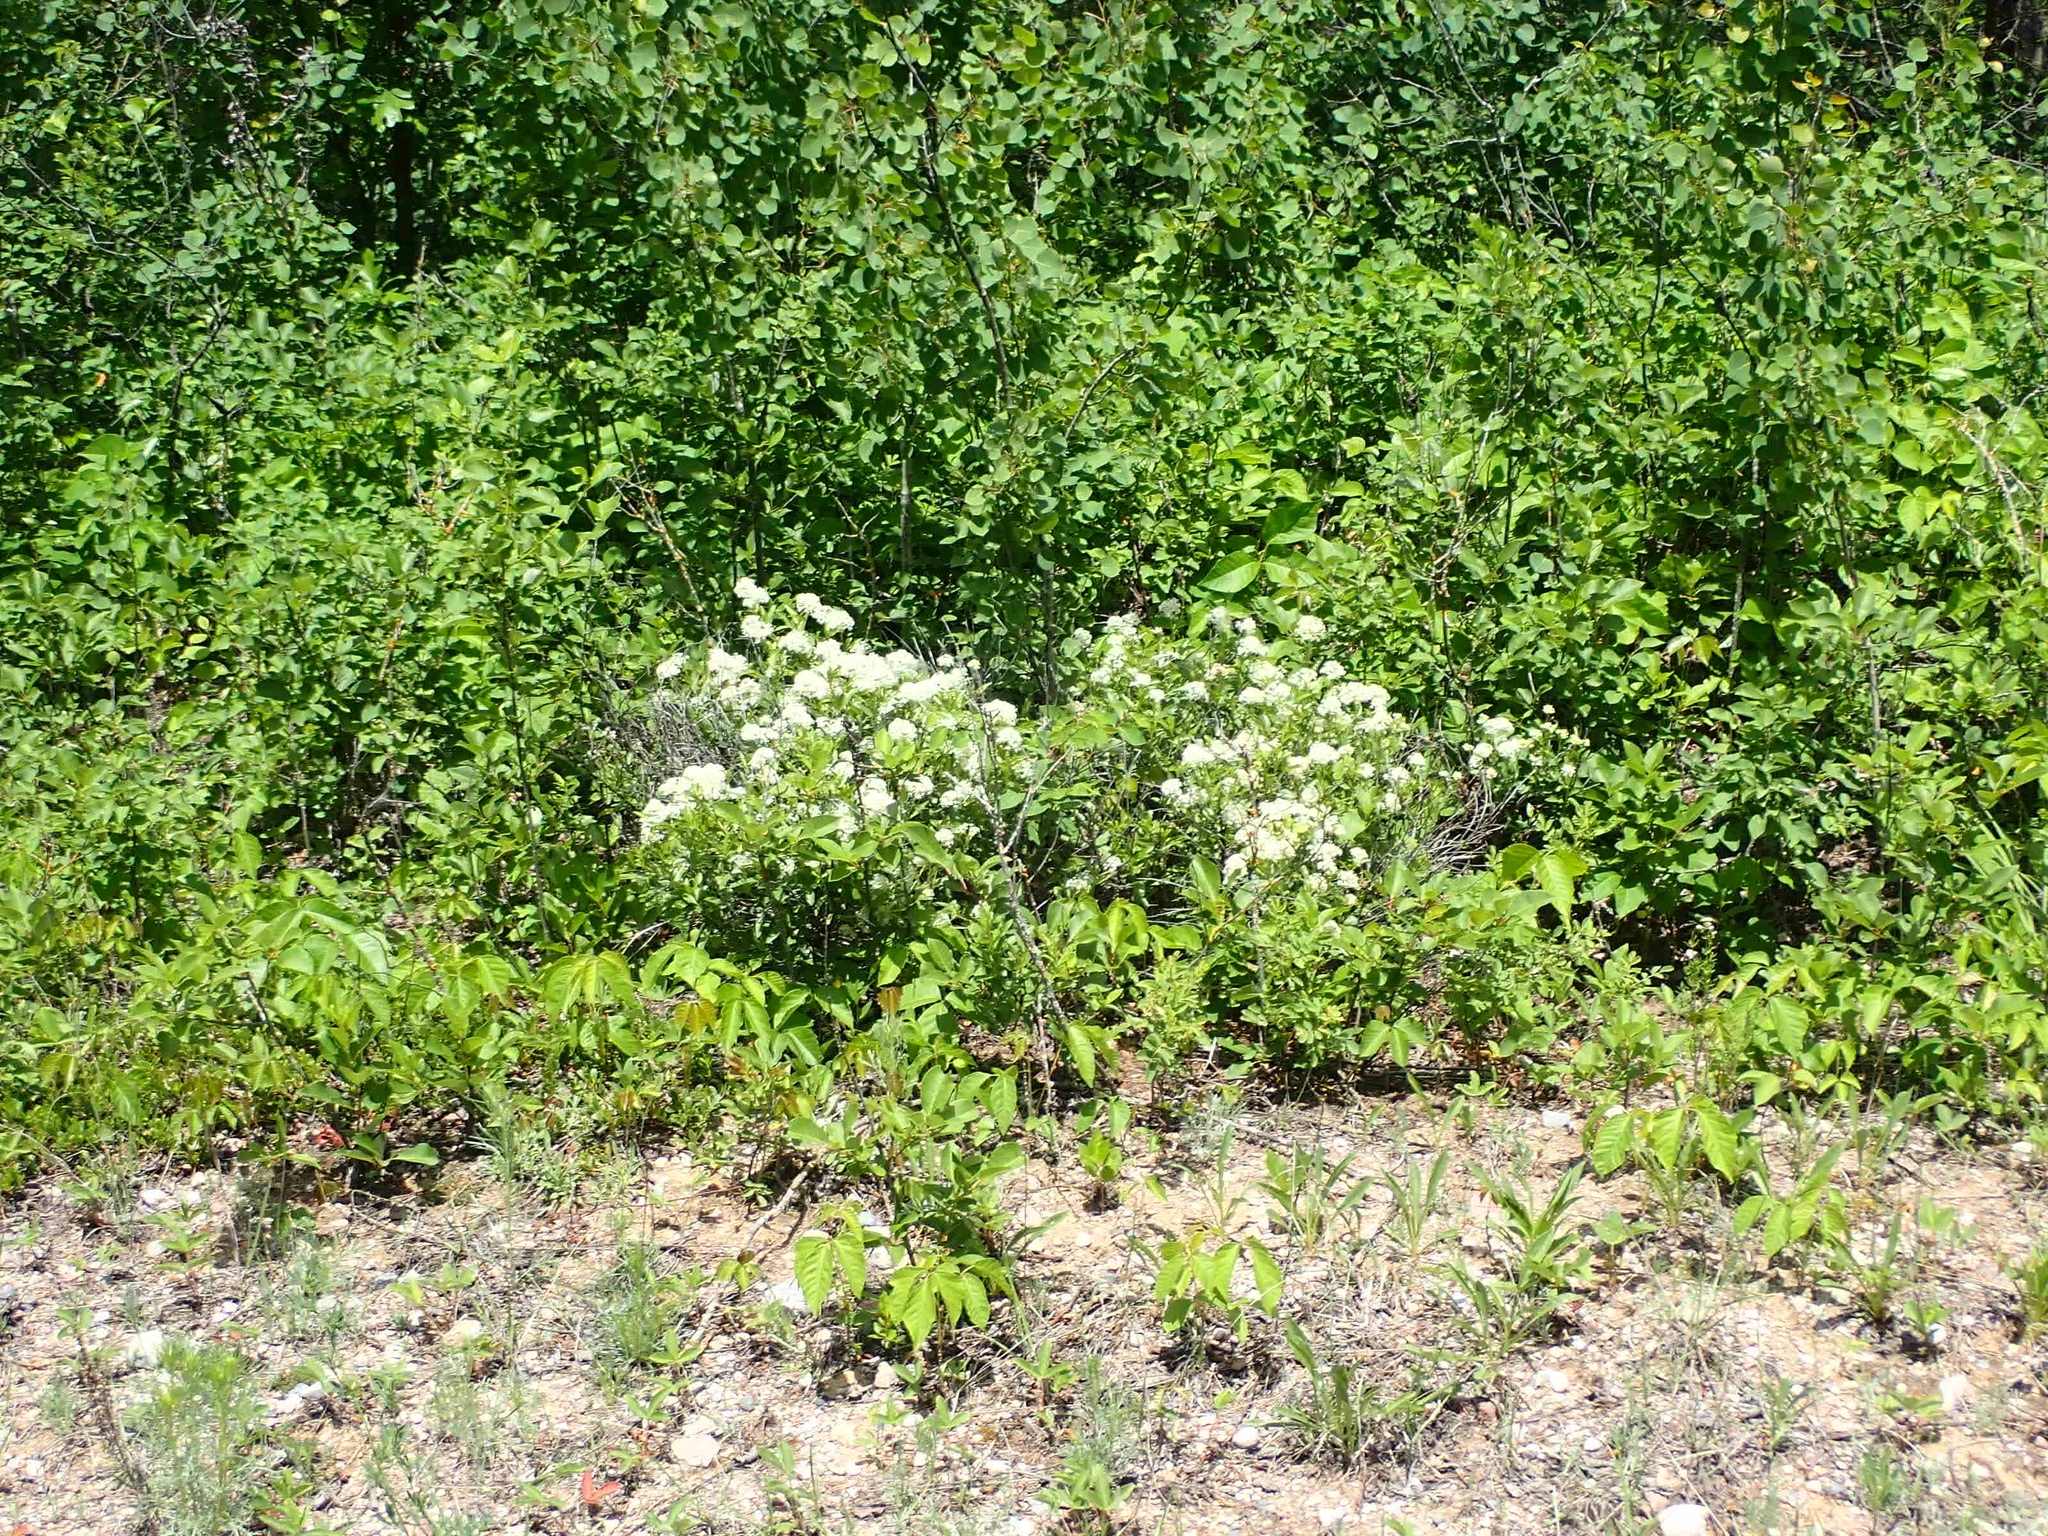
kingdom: Plantae
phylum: Tracheophyta
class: Magnoliopsida
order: Rosales
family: Rhamnaceae
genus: Ceanothus
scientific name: Ceanothus herbaceus
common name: Inland ceanothus
